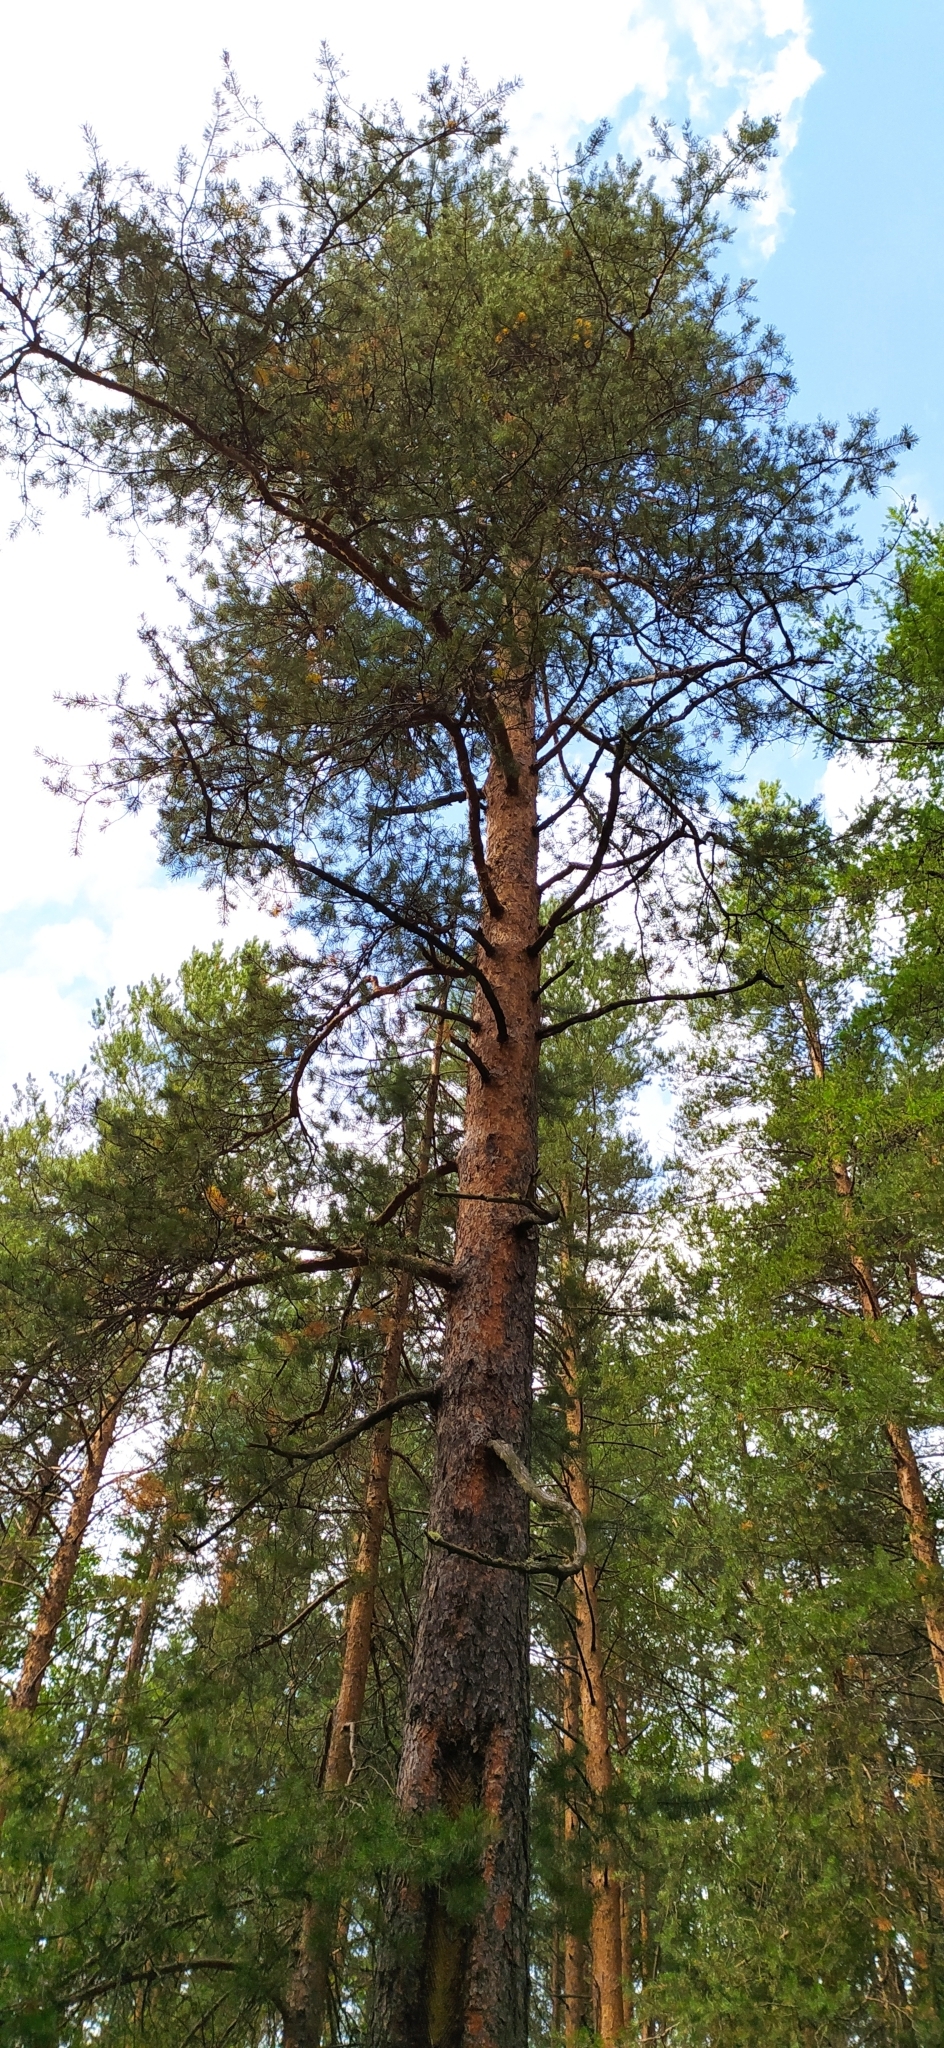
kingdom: Plantae
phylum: Tracheophyta
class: Pinopsida
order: Pinales
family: Pinaceae
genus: Pinus
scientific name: Pinus sylvestris
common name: Scots pine
